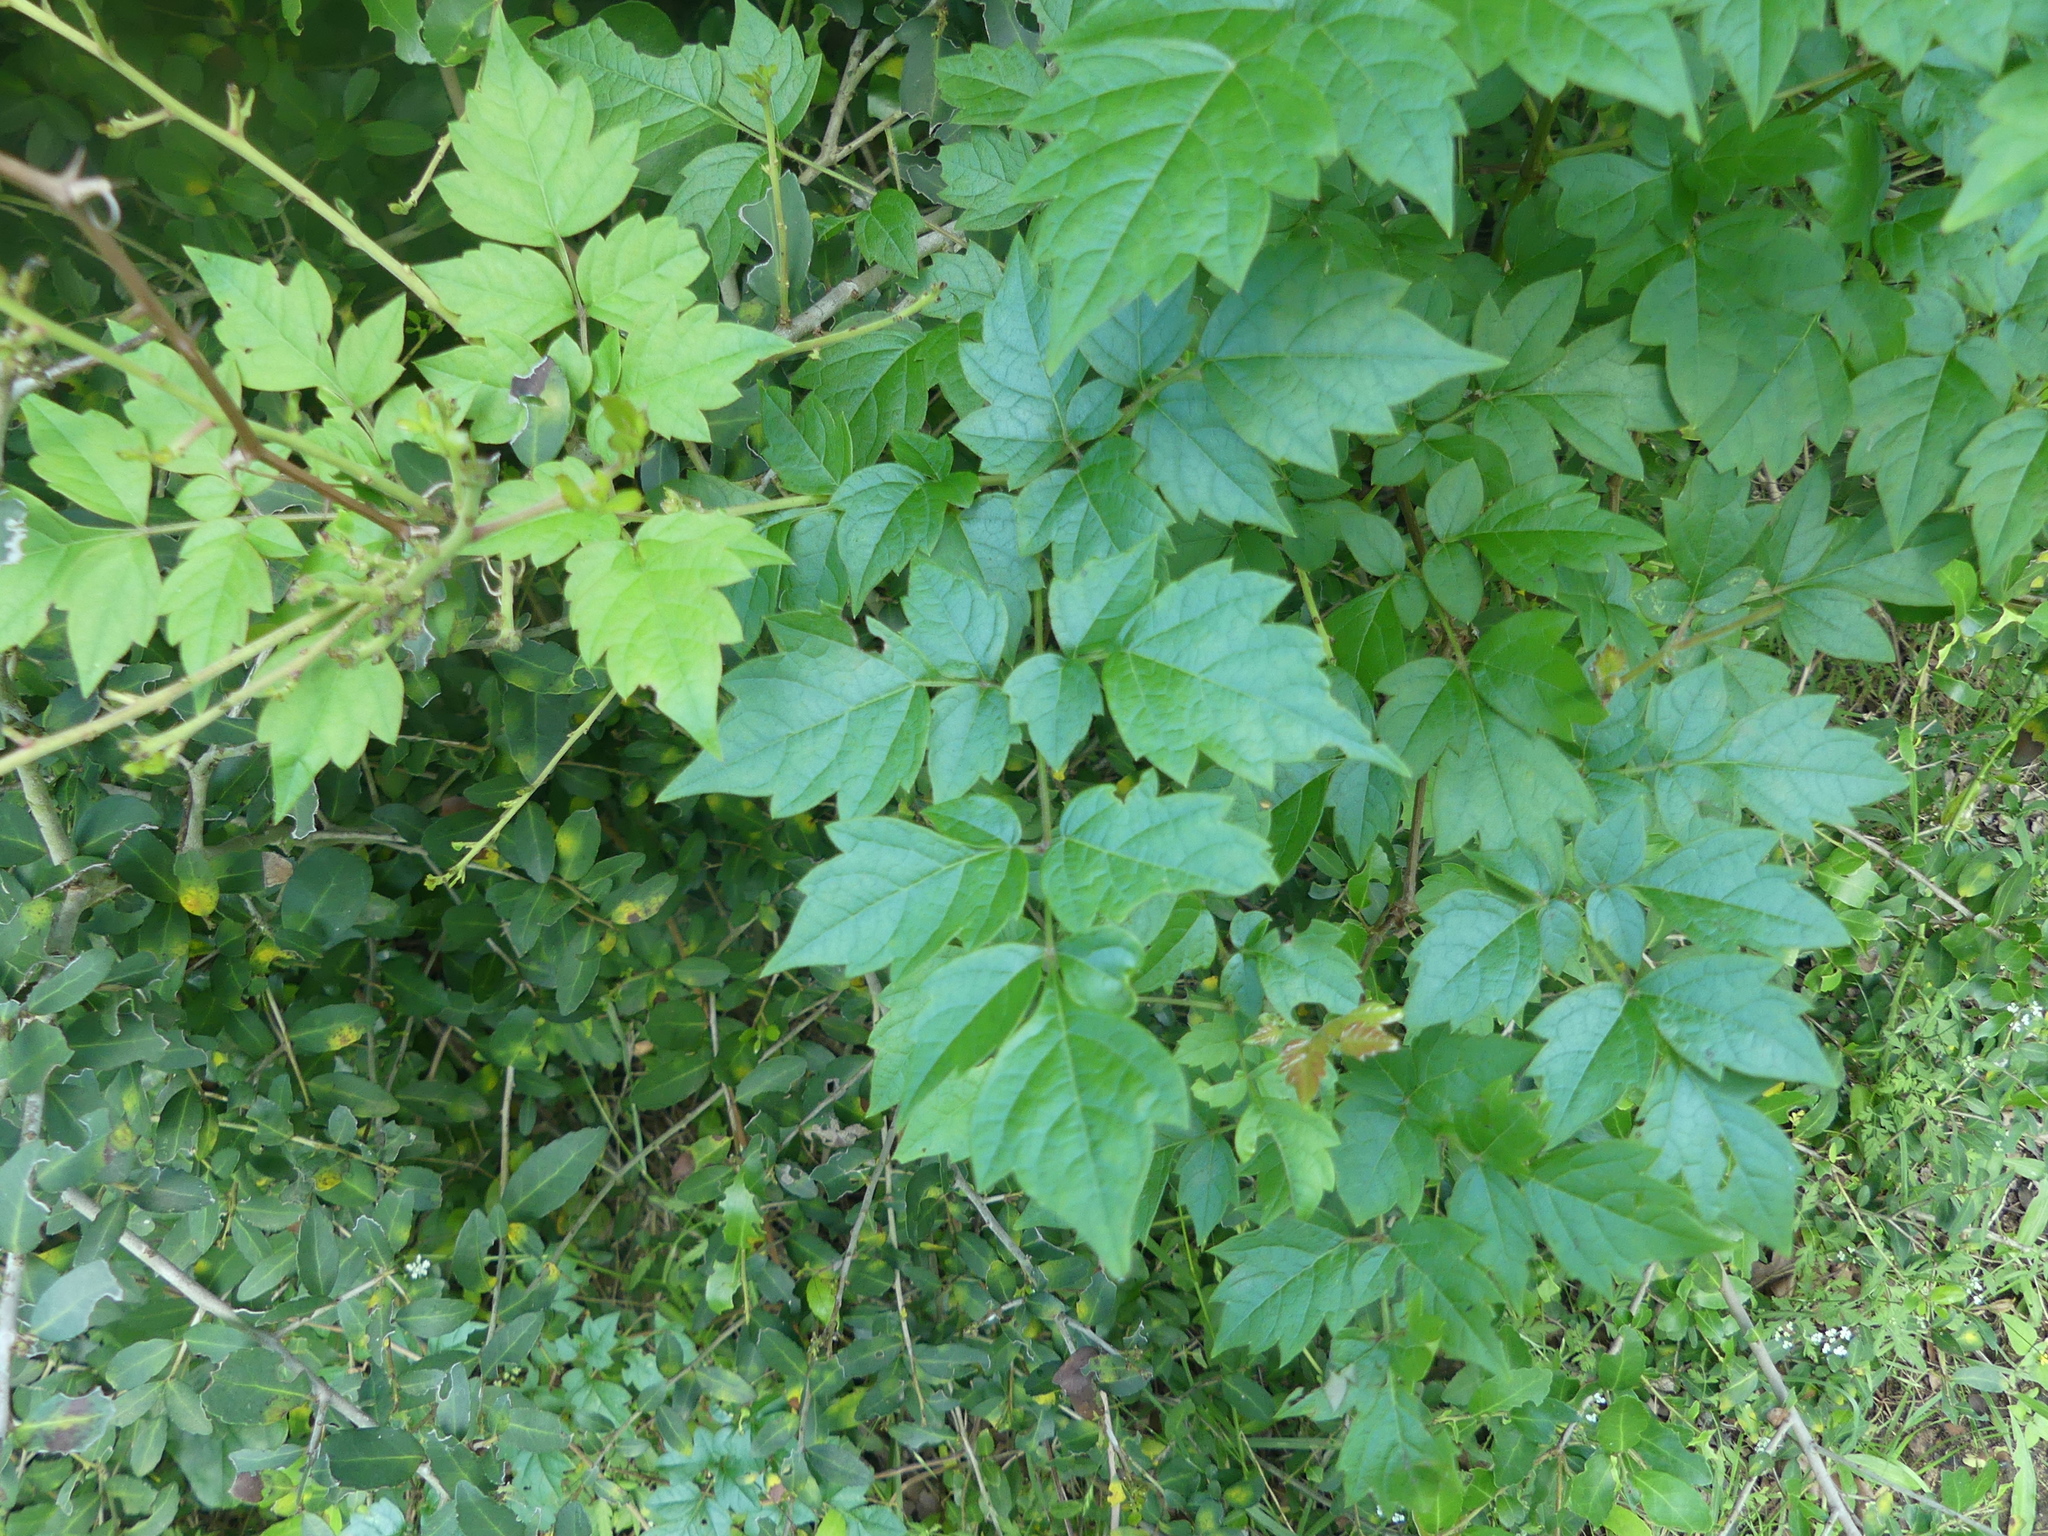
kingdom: Plantae
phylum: Tracheophyta
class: Magnoliopsida
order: Vitales
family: Vitaceae
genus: Nekemias
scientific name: Nekemias arborea
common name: Peppervine
